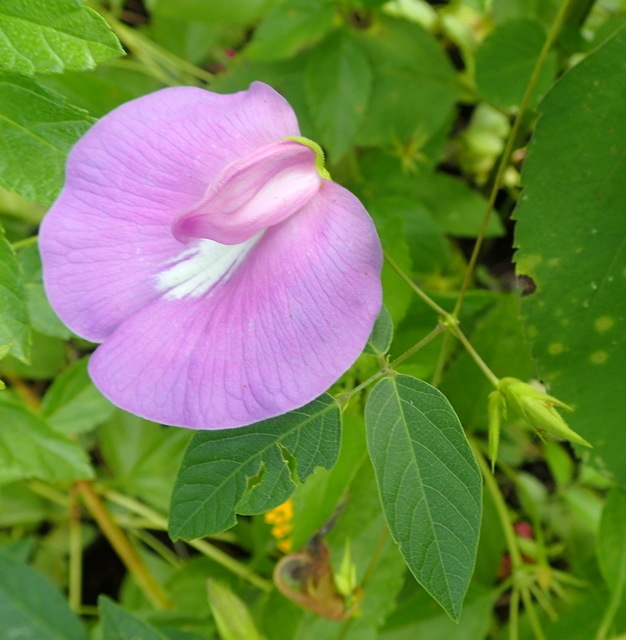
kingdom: Plantae
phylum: Tracheophyta
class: Magnoliopsida
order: Fabales
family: Fabaceae
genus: Centrosema
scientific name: Centrosema virginianum
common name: Butterfly-pea
